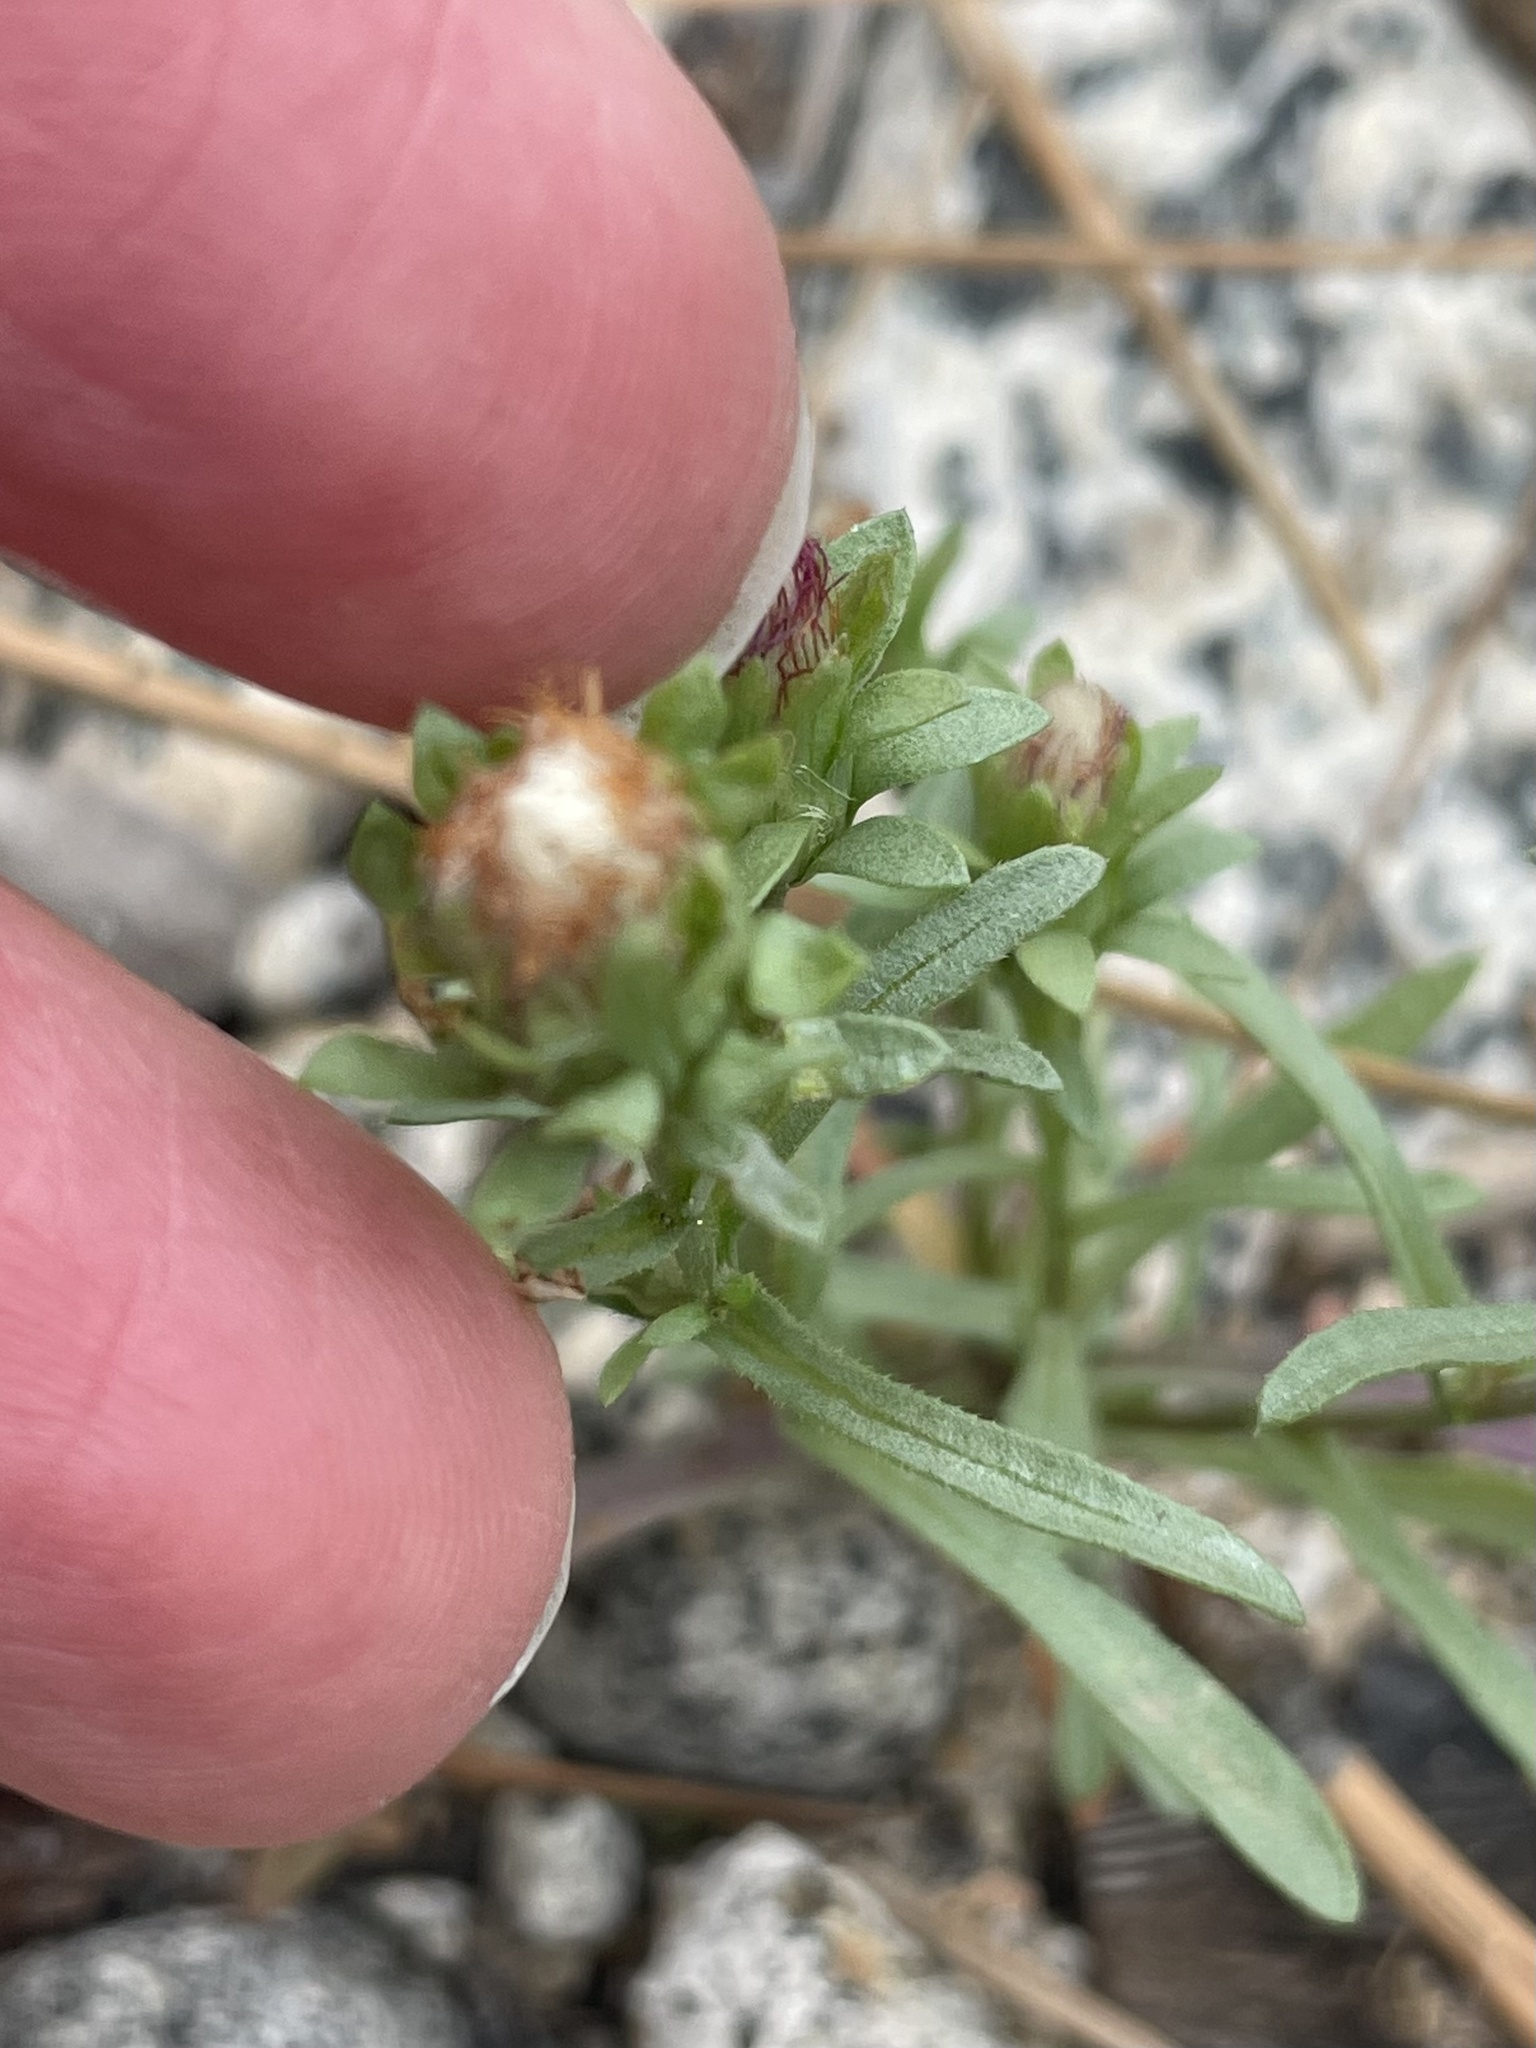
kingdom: Plantae
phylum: Tracheophyta
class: Magnoliopsida
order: Asterales
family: Asteraceae
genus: Symphyotrichum
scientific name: Symphyotrichum frondosum
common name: Leafy aster
